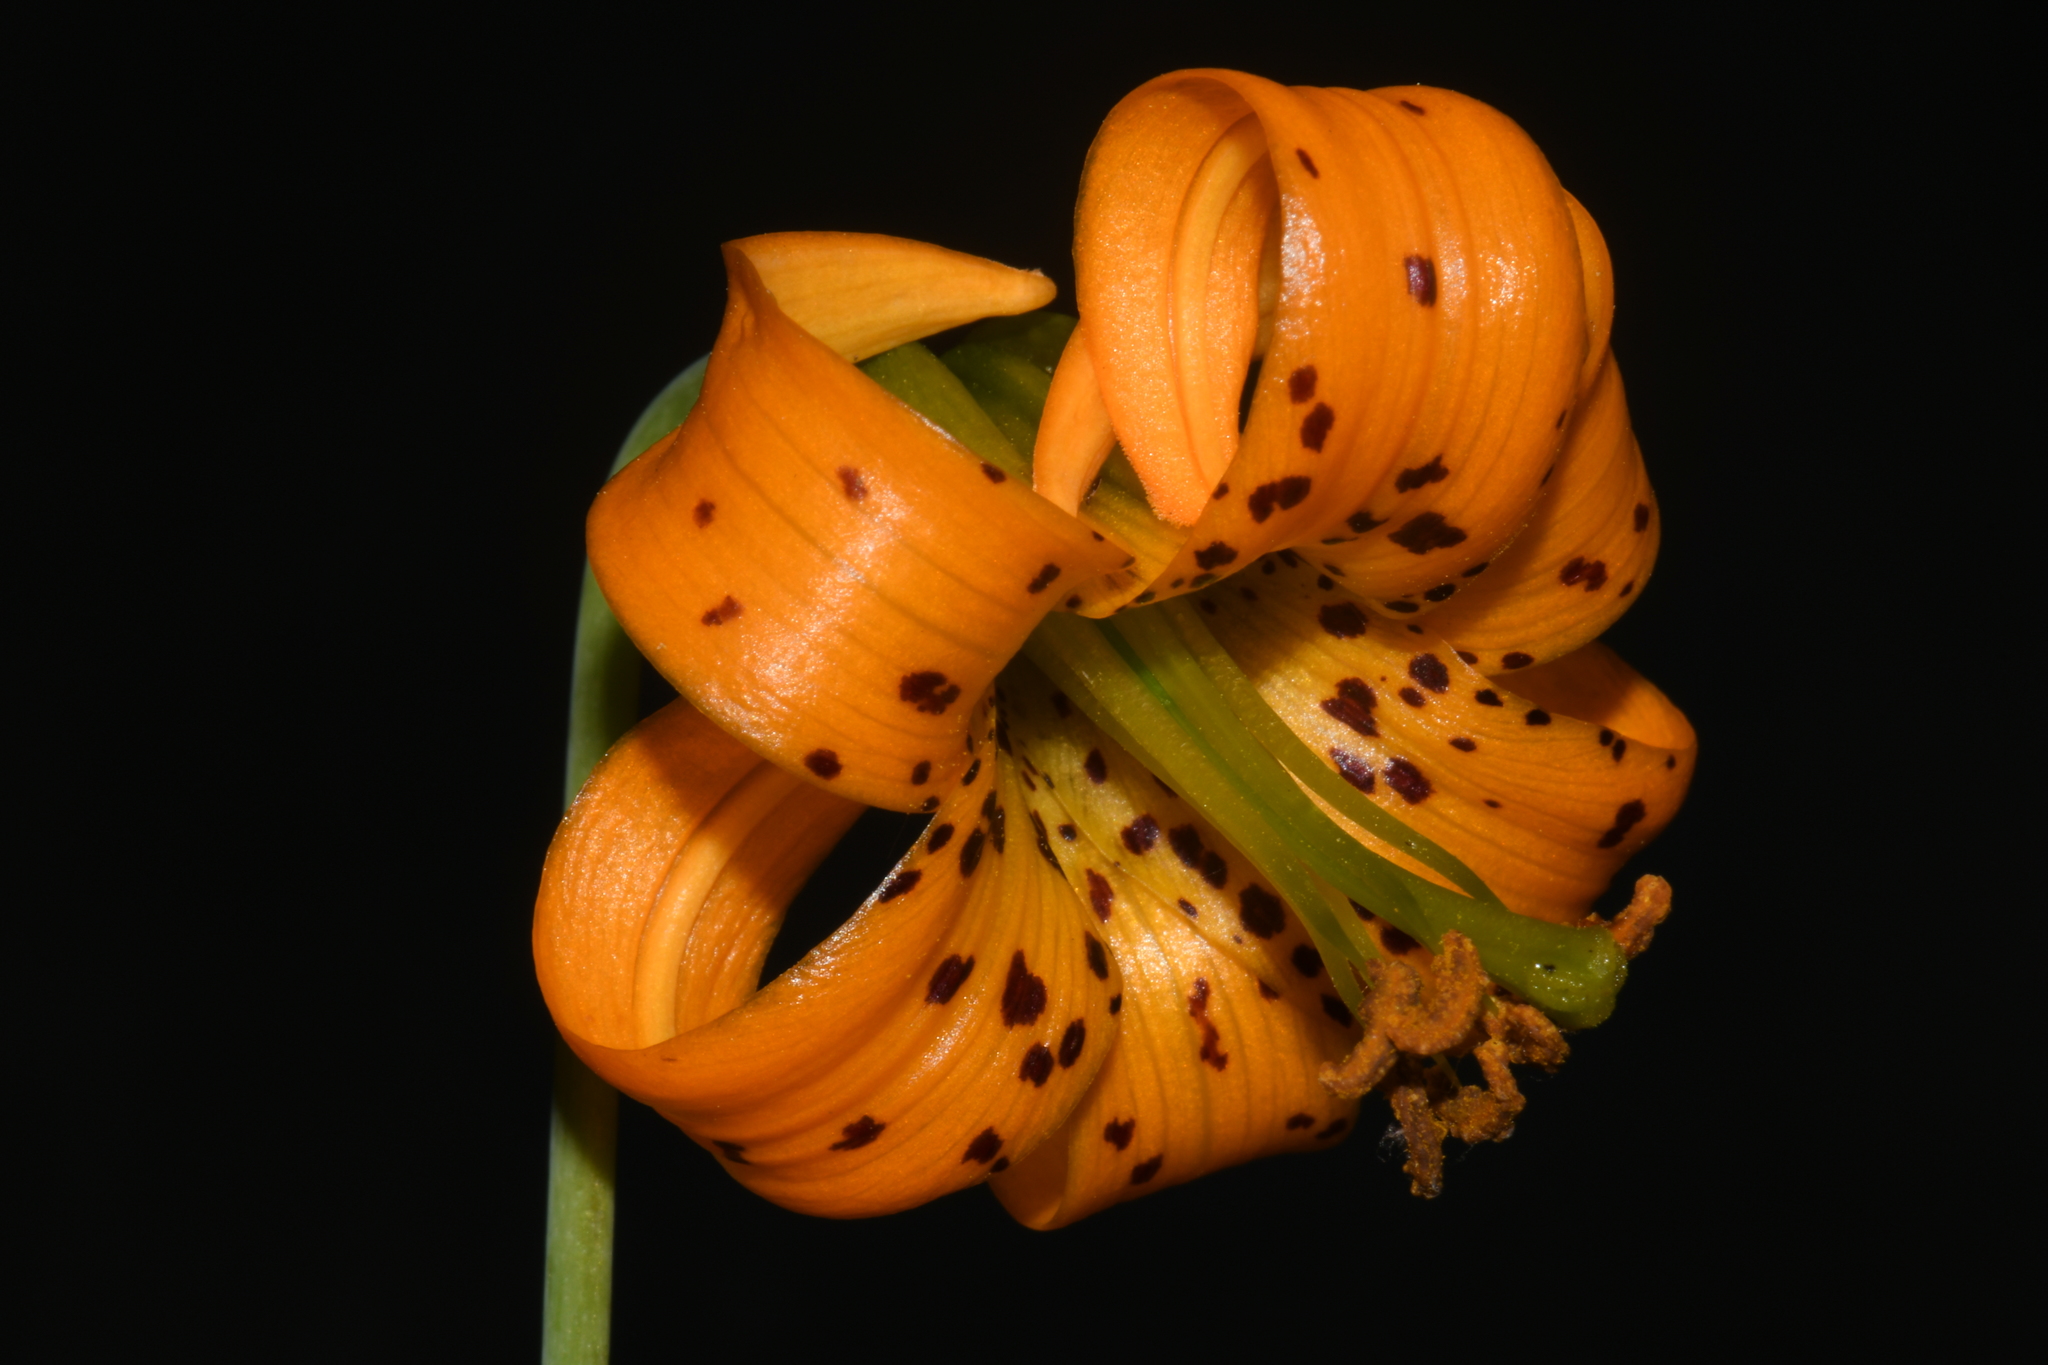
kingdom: Plantae
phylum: Tracheophyta
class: Liliopsida
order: Liliales
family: Liliaceae
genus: Lilium
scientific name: Lilium columbianum
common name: Columbia lily
